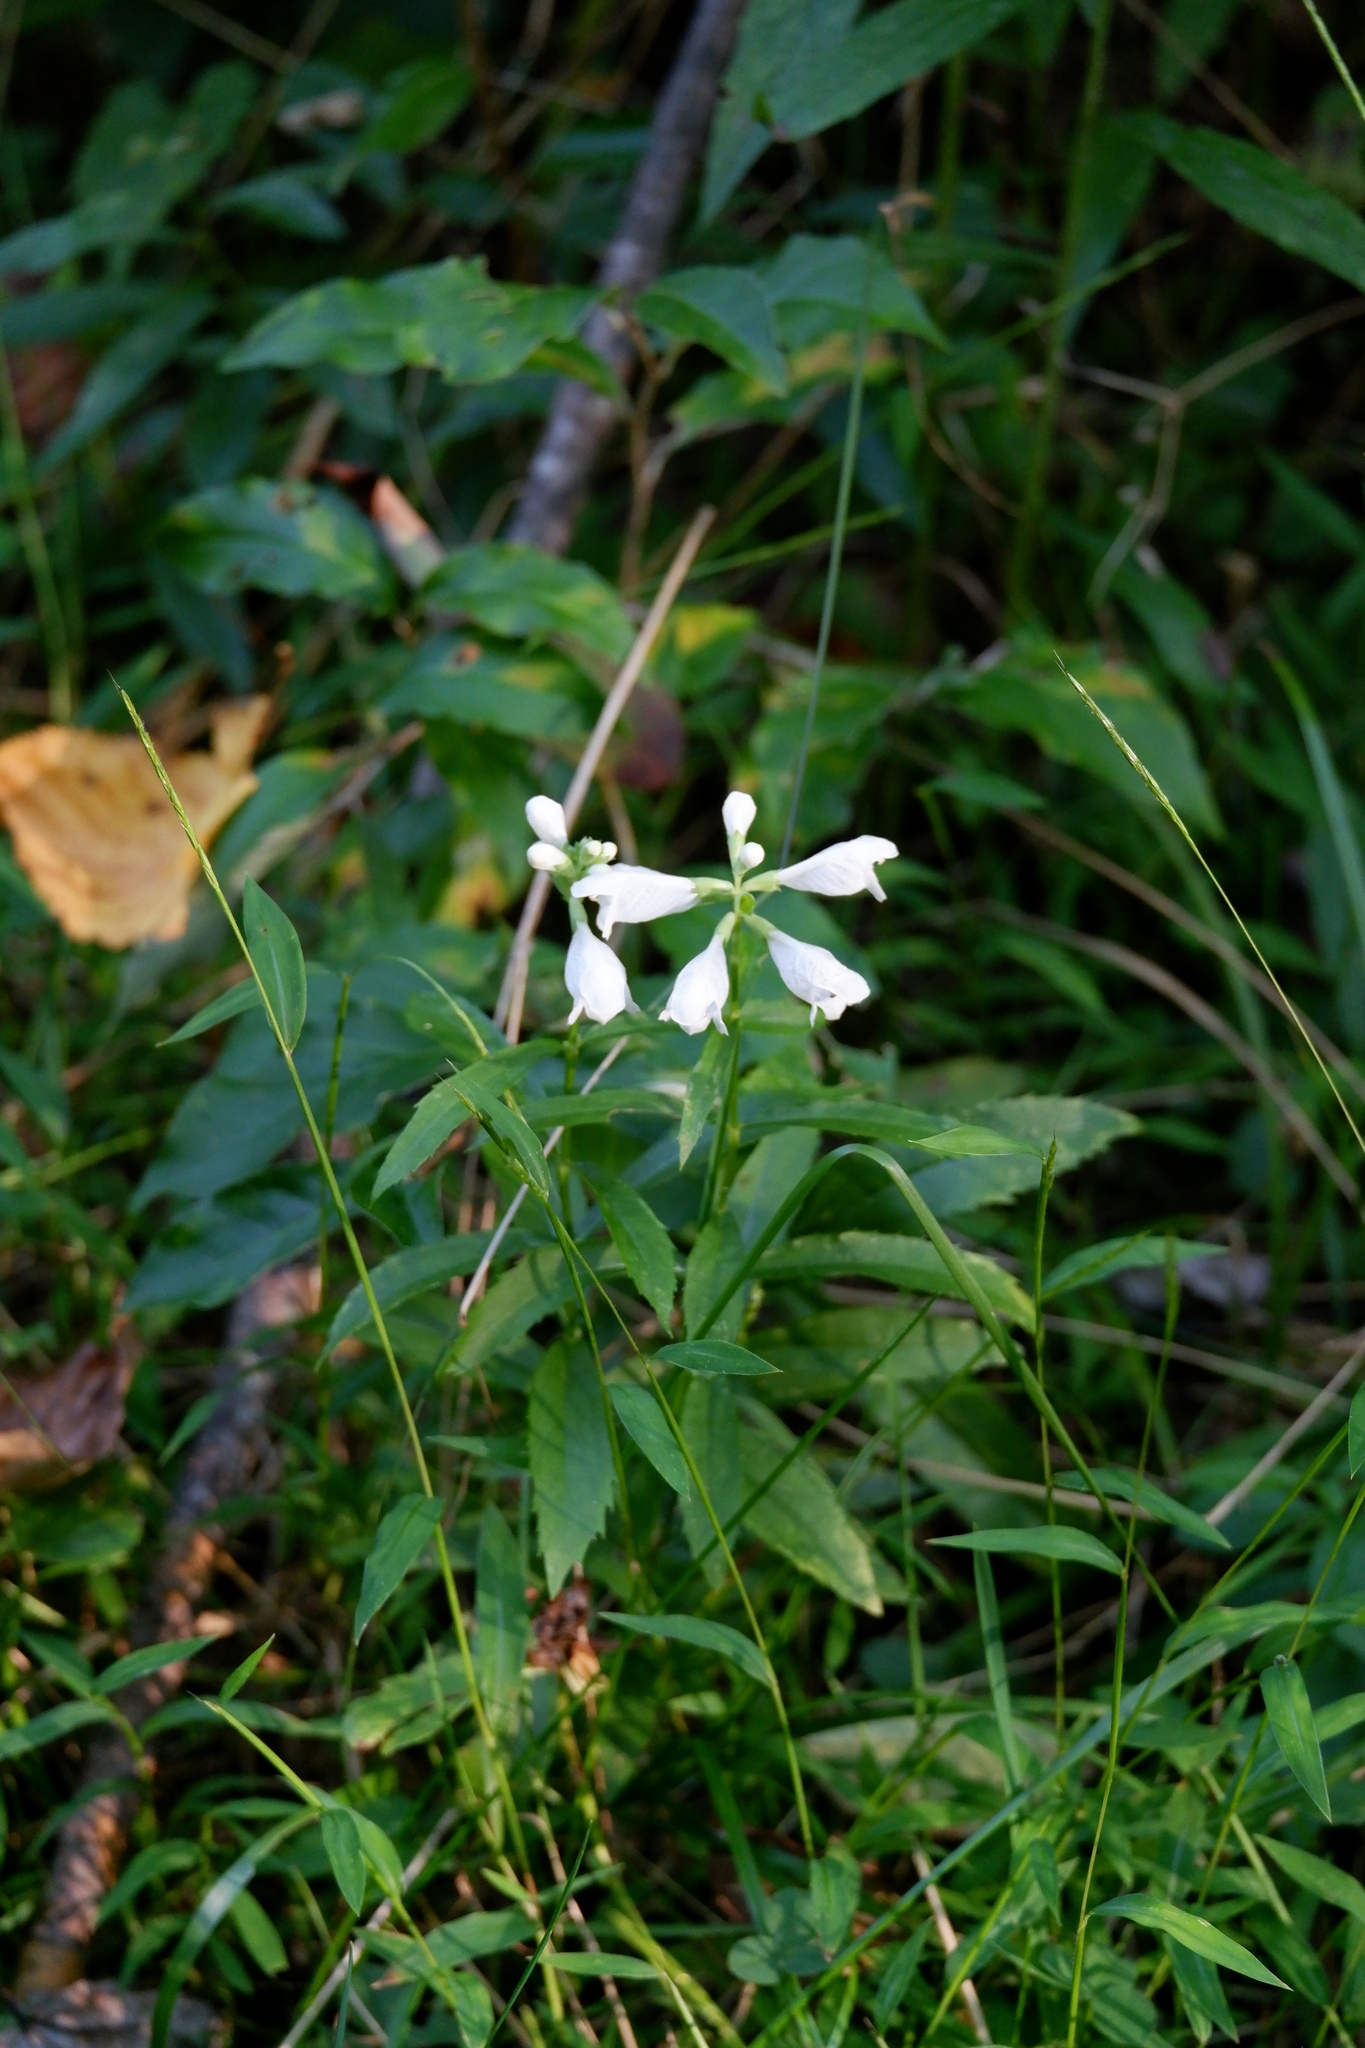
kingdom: Plantae
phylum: Tracheophyta
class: Magnoliopsida
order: Lamiales
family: Lamiaceae
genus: Physostegia
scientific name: Physostegia virginiana
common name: Obedient-plant
